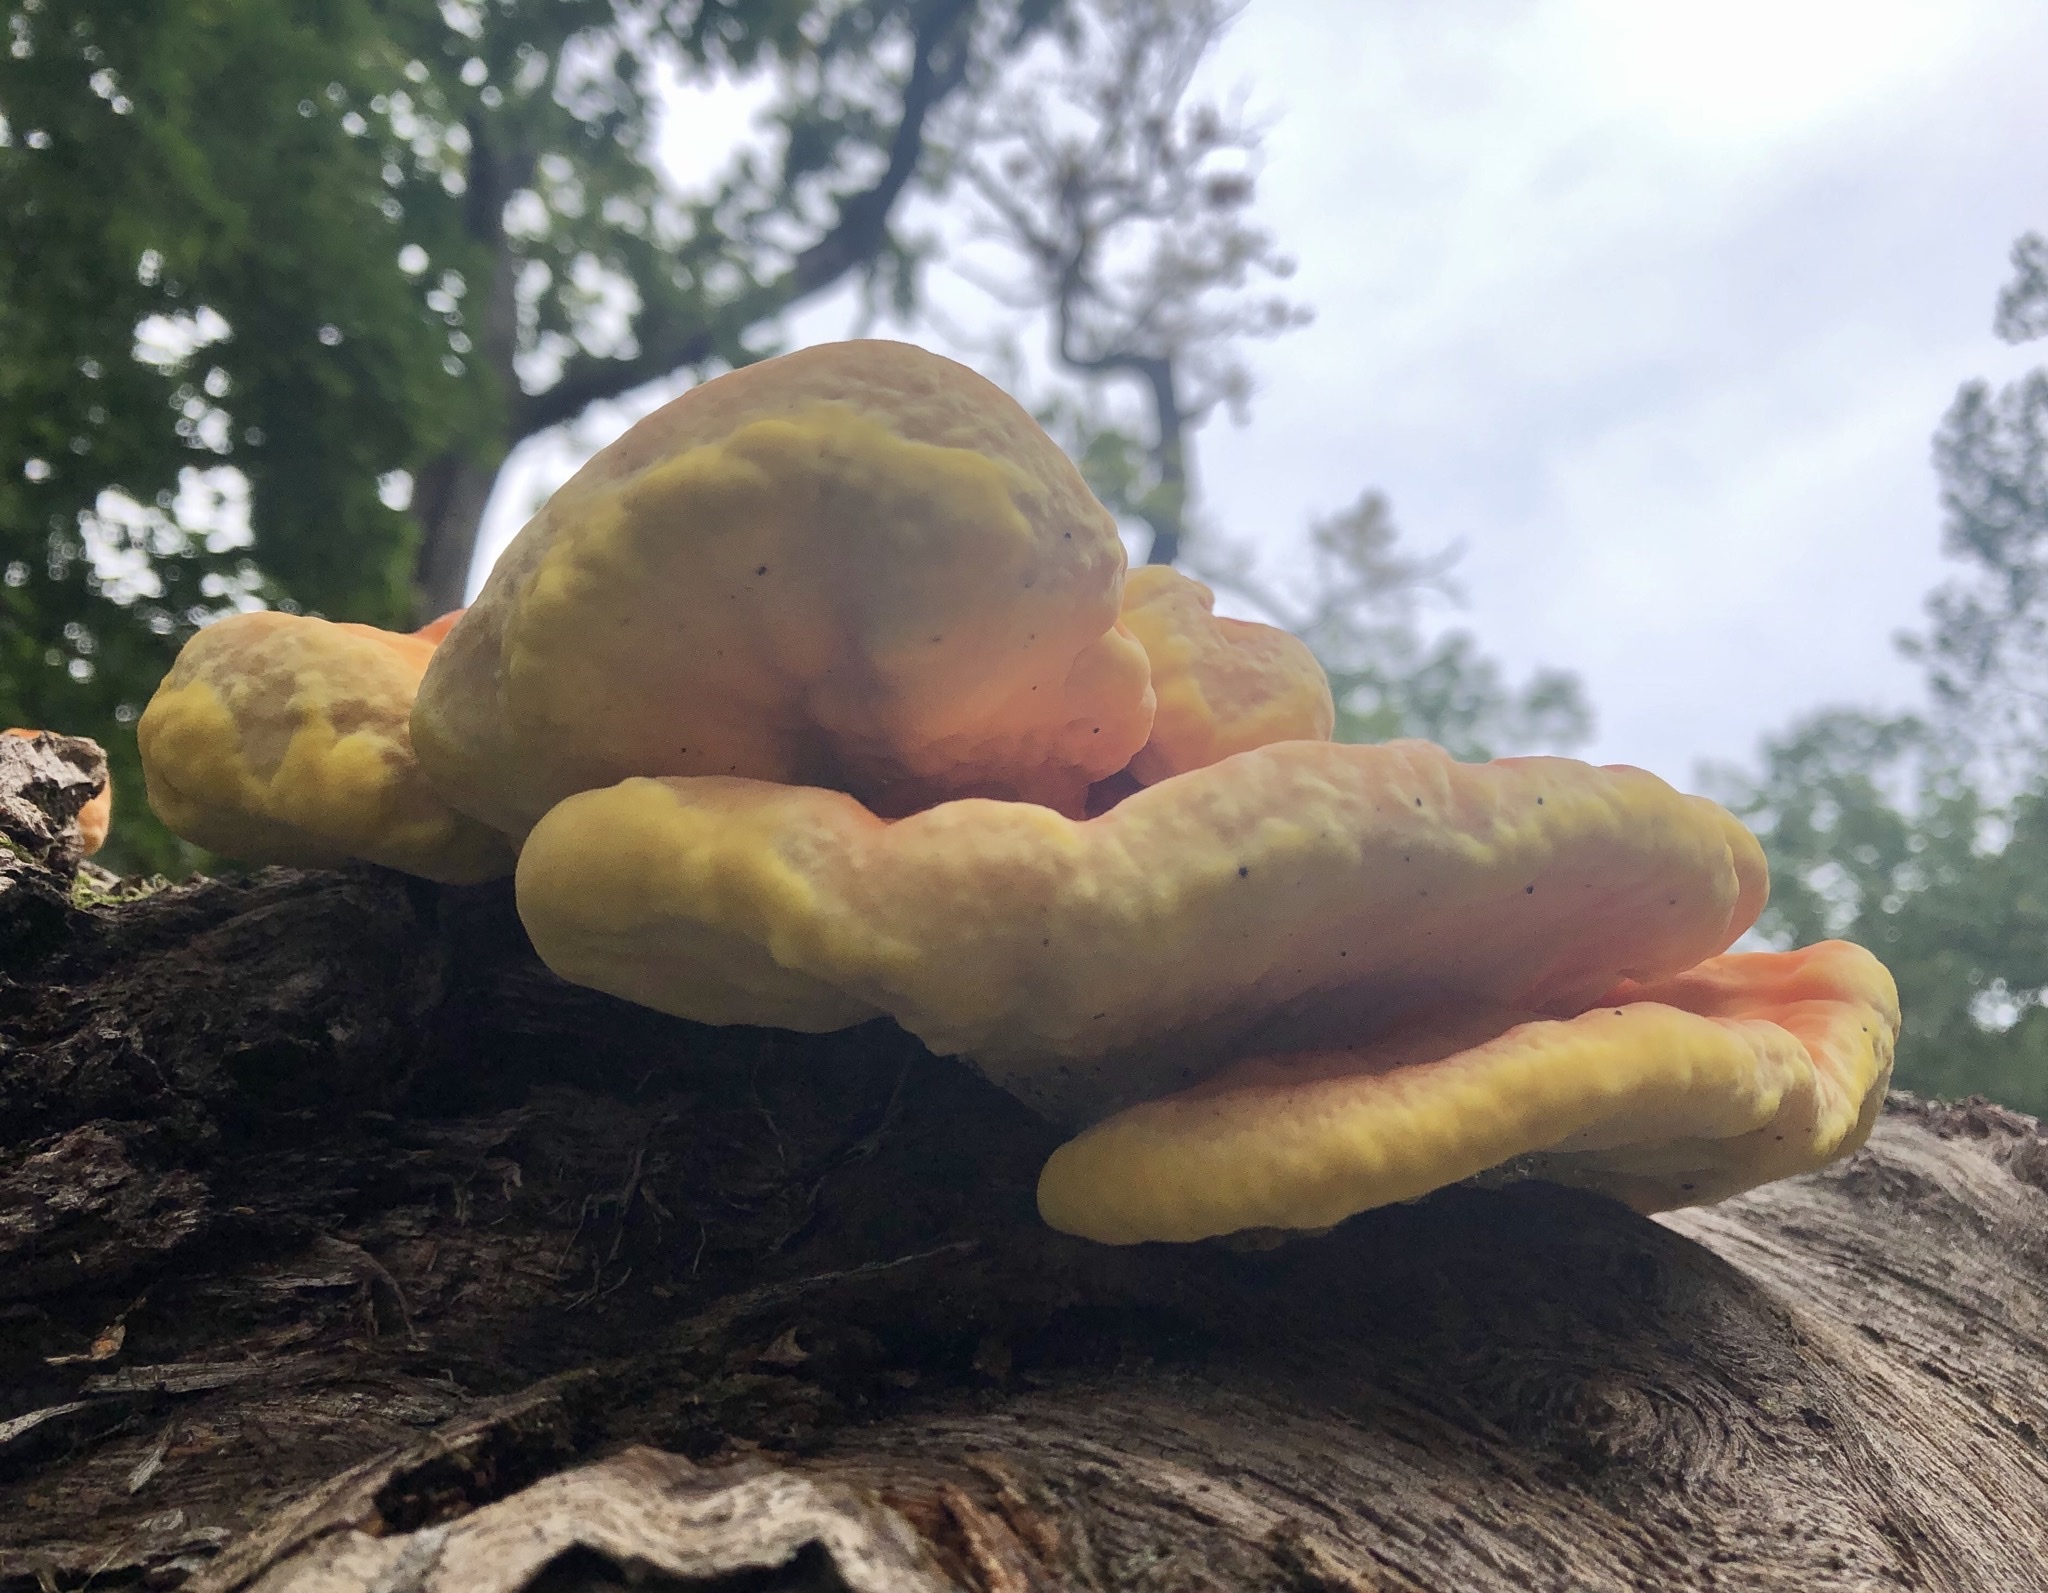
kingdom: Fungi
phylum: Basidiomycota
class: Agaricomycetes
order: Polyporales
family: Laetiporaceae
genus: Laetiporus
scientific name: Laetiporus sulphureus
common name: Chicken of the woods
